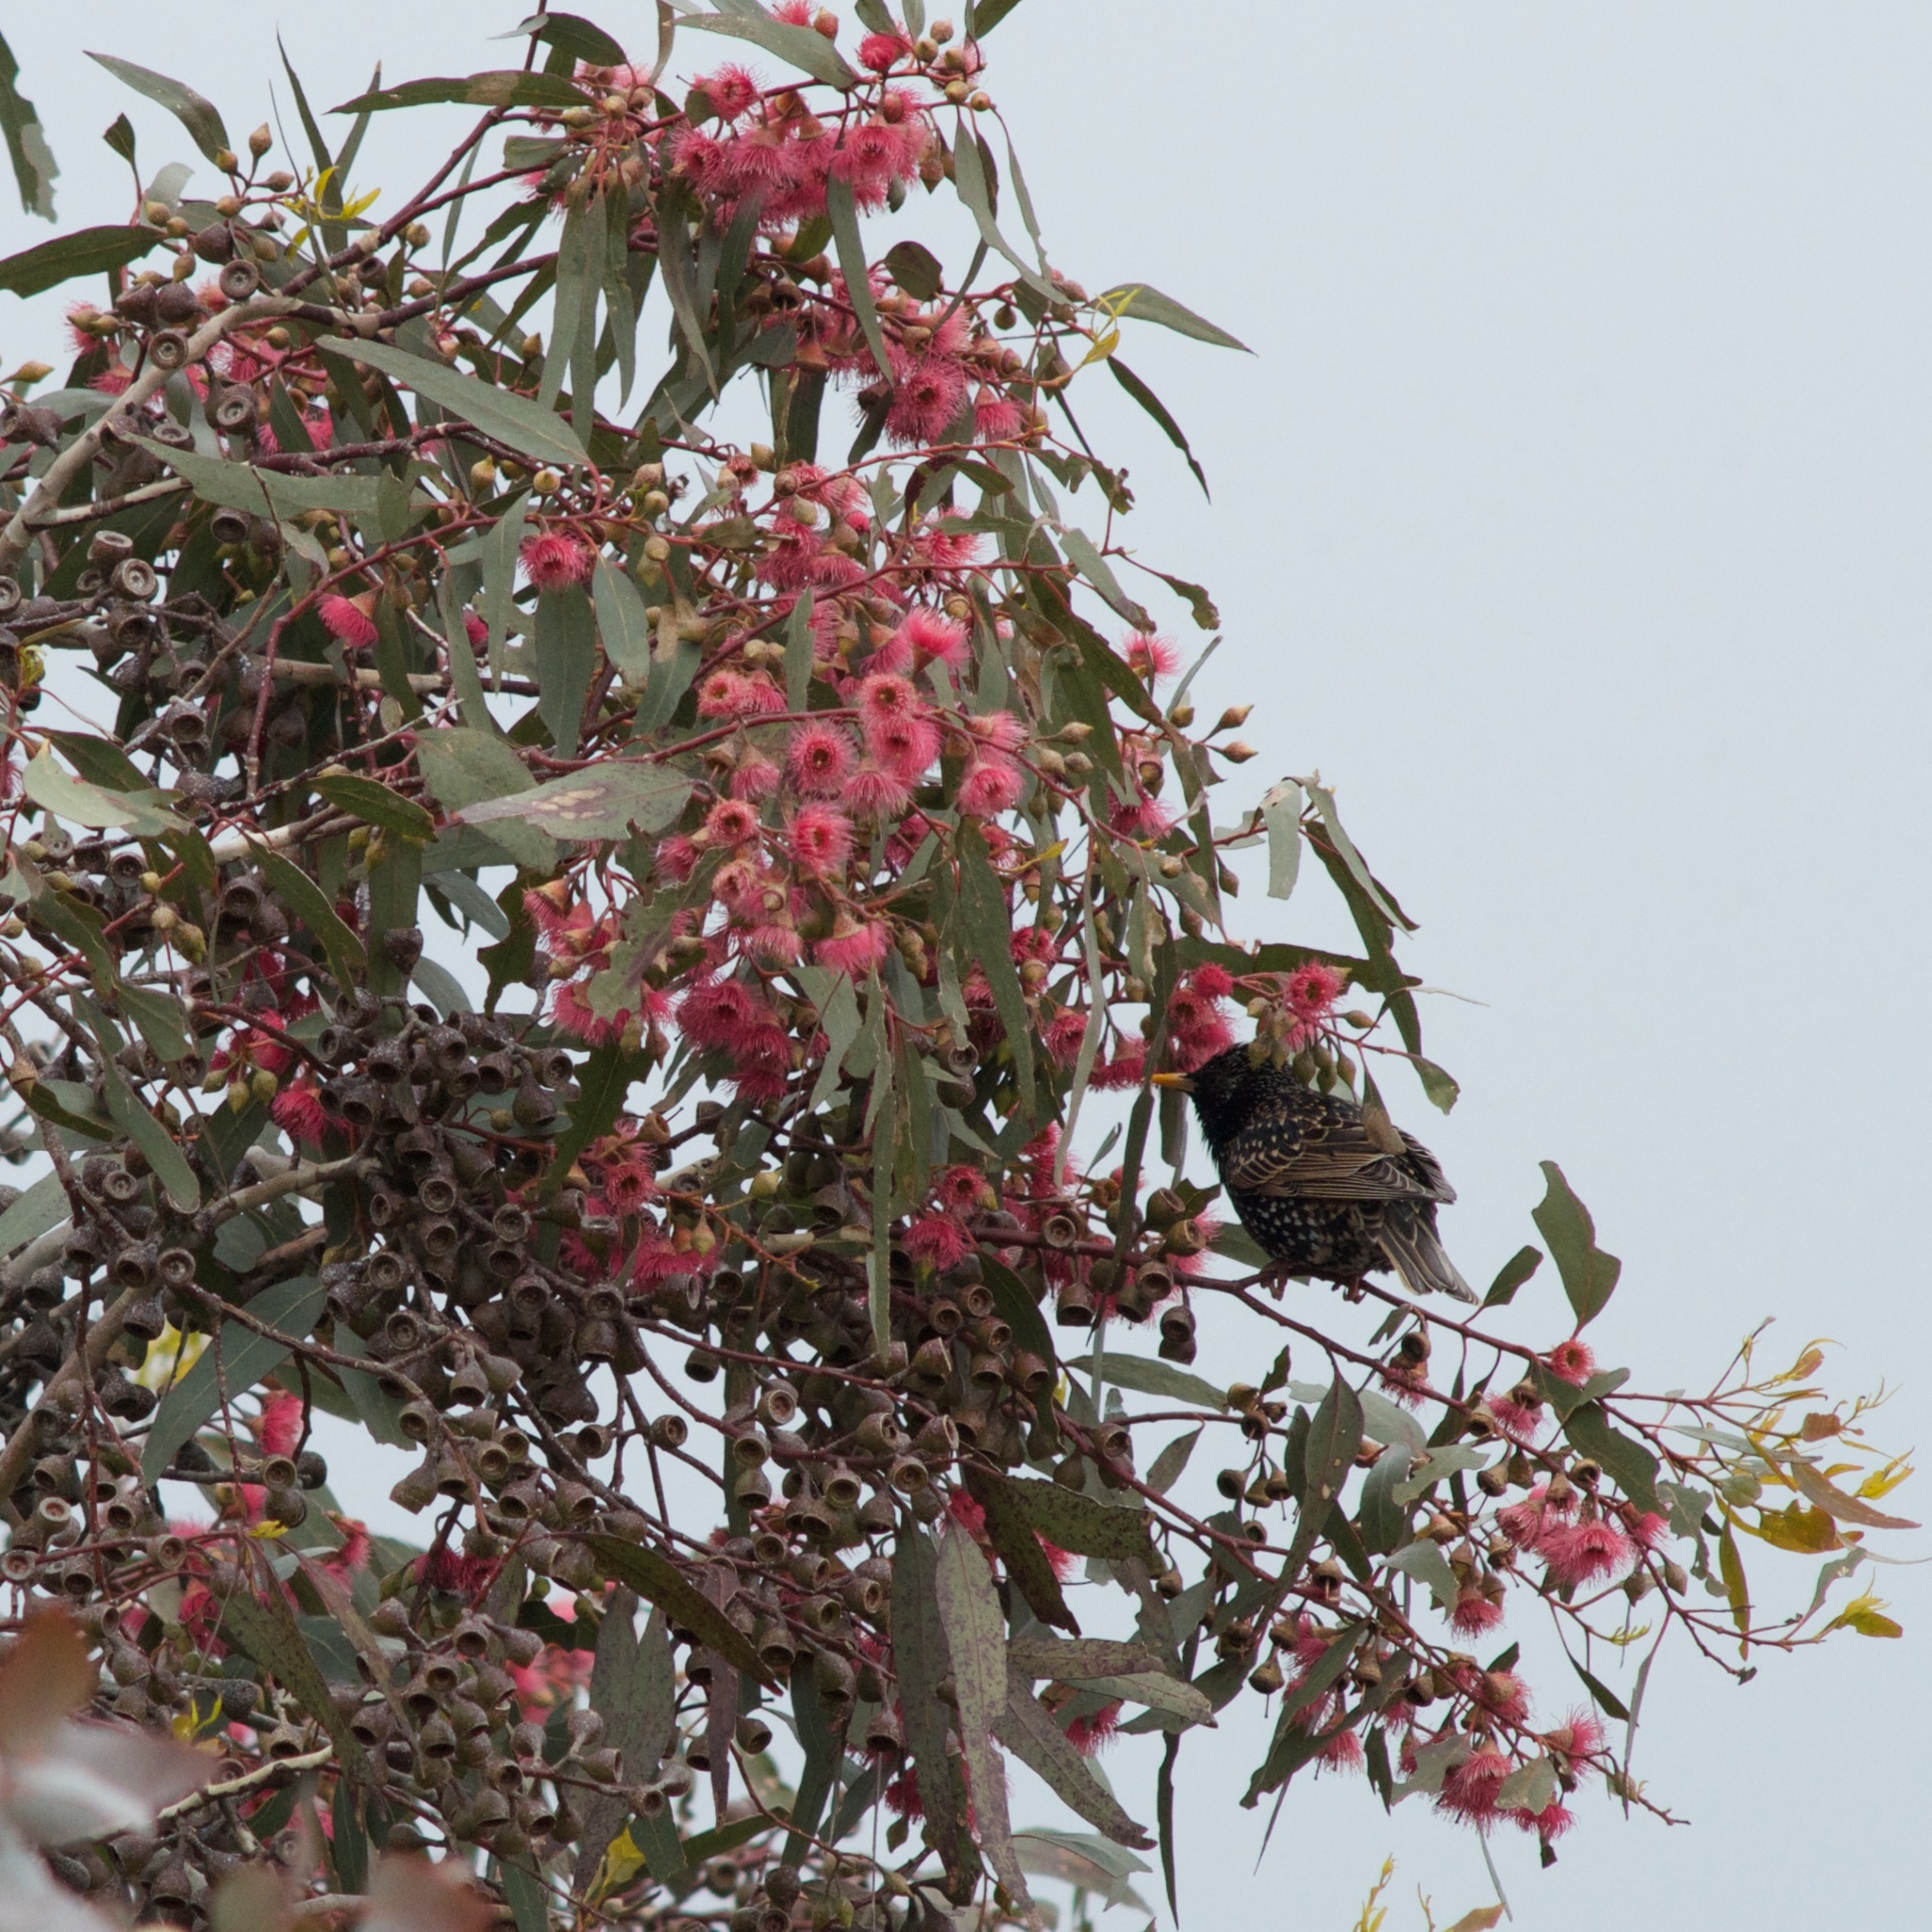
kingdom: Animalia
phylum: Chordata
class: Aves
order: Passeriformes
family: Sturnidae
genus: Sturnus
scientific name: Sturnus vulgaris
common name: Common starling
